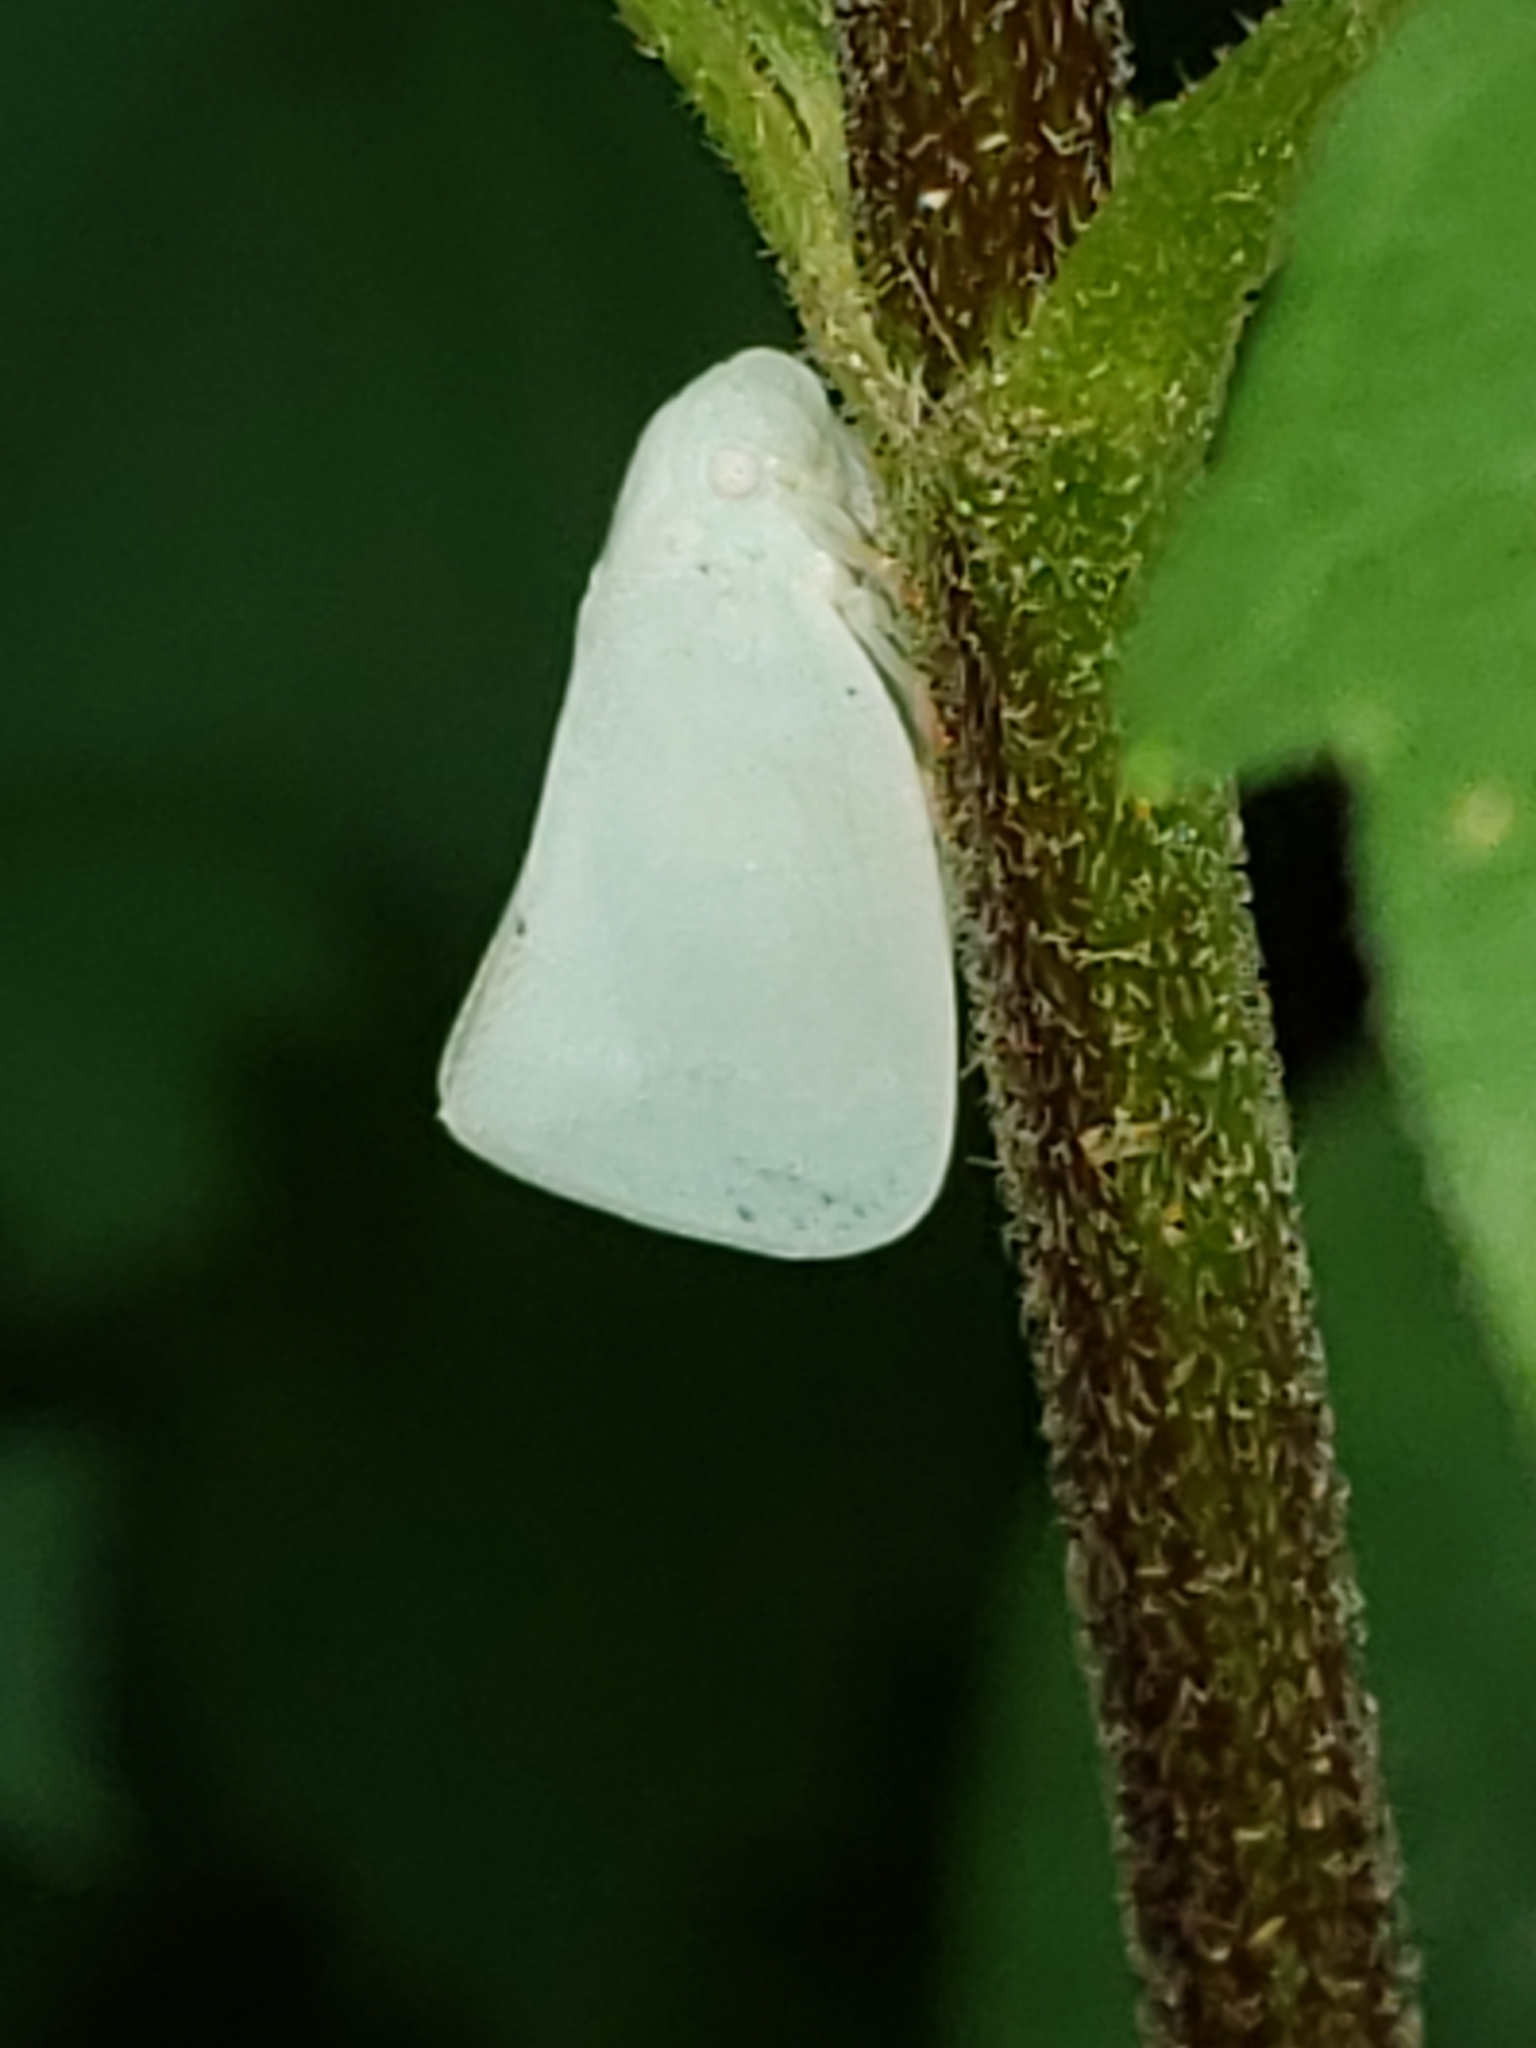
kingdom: Animalia
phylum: Arthropoda
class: Insecta
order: Hemiptera
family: Flatidae
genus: Flatormenis
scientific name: Flatormenis proxima
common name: Northern flatid planthopper
